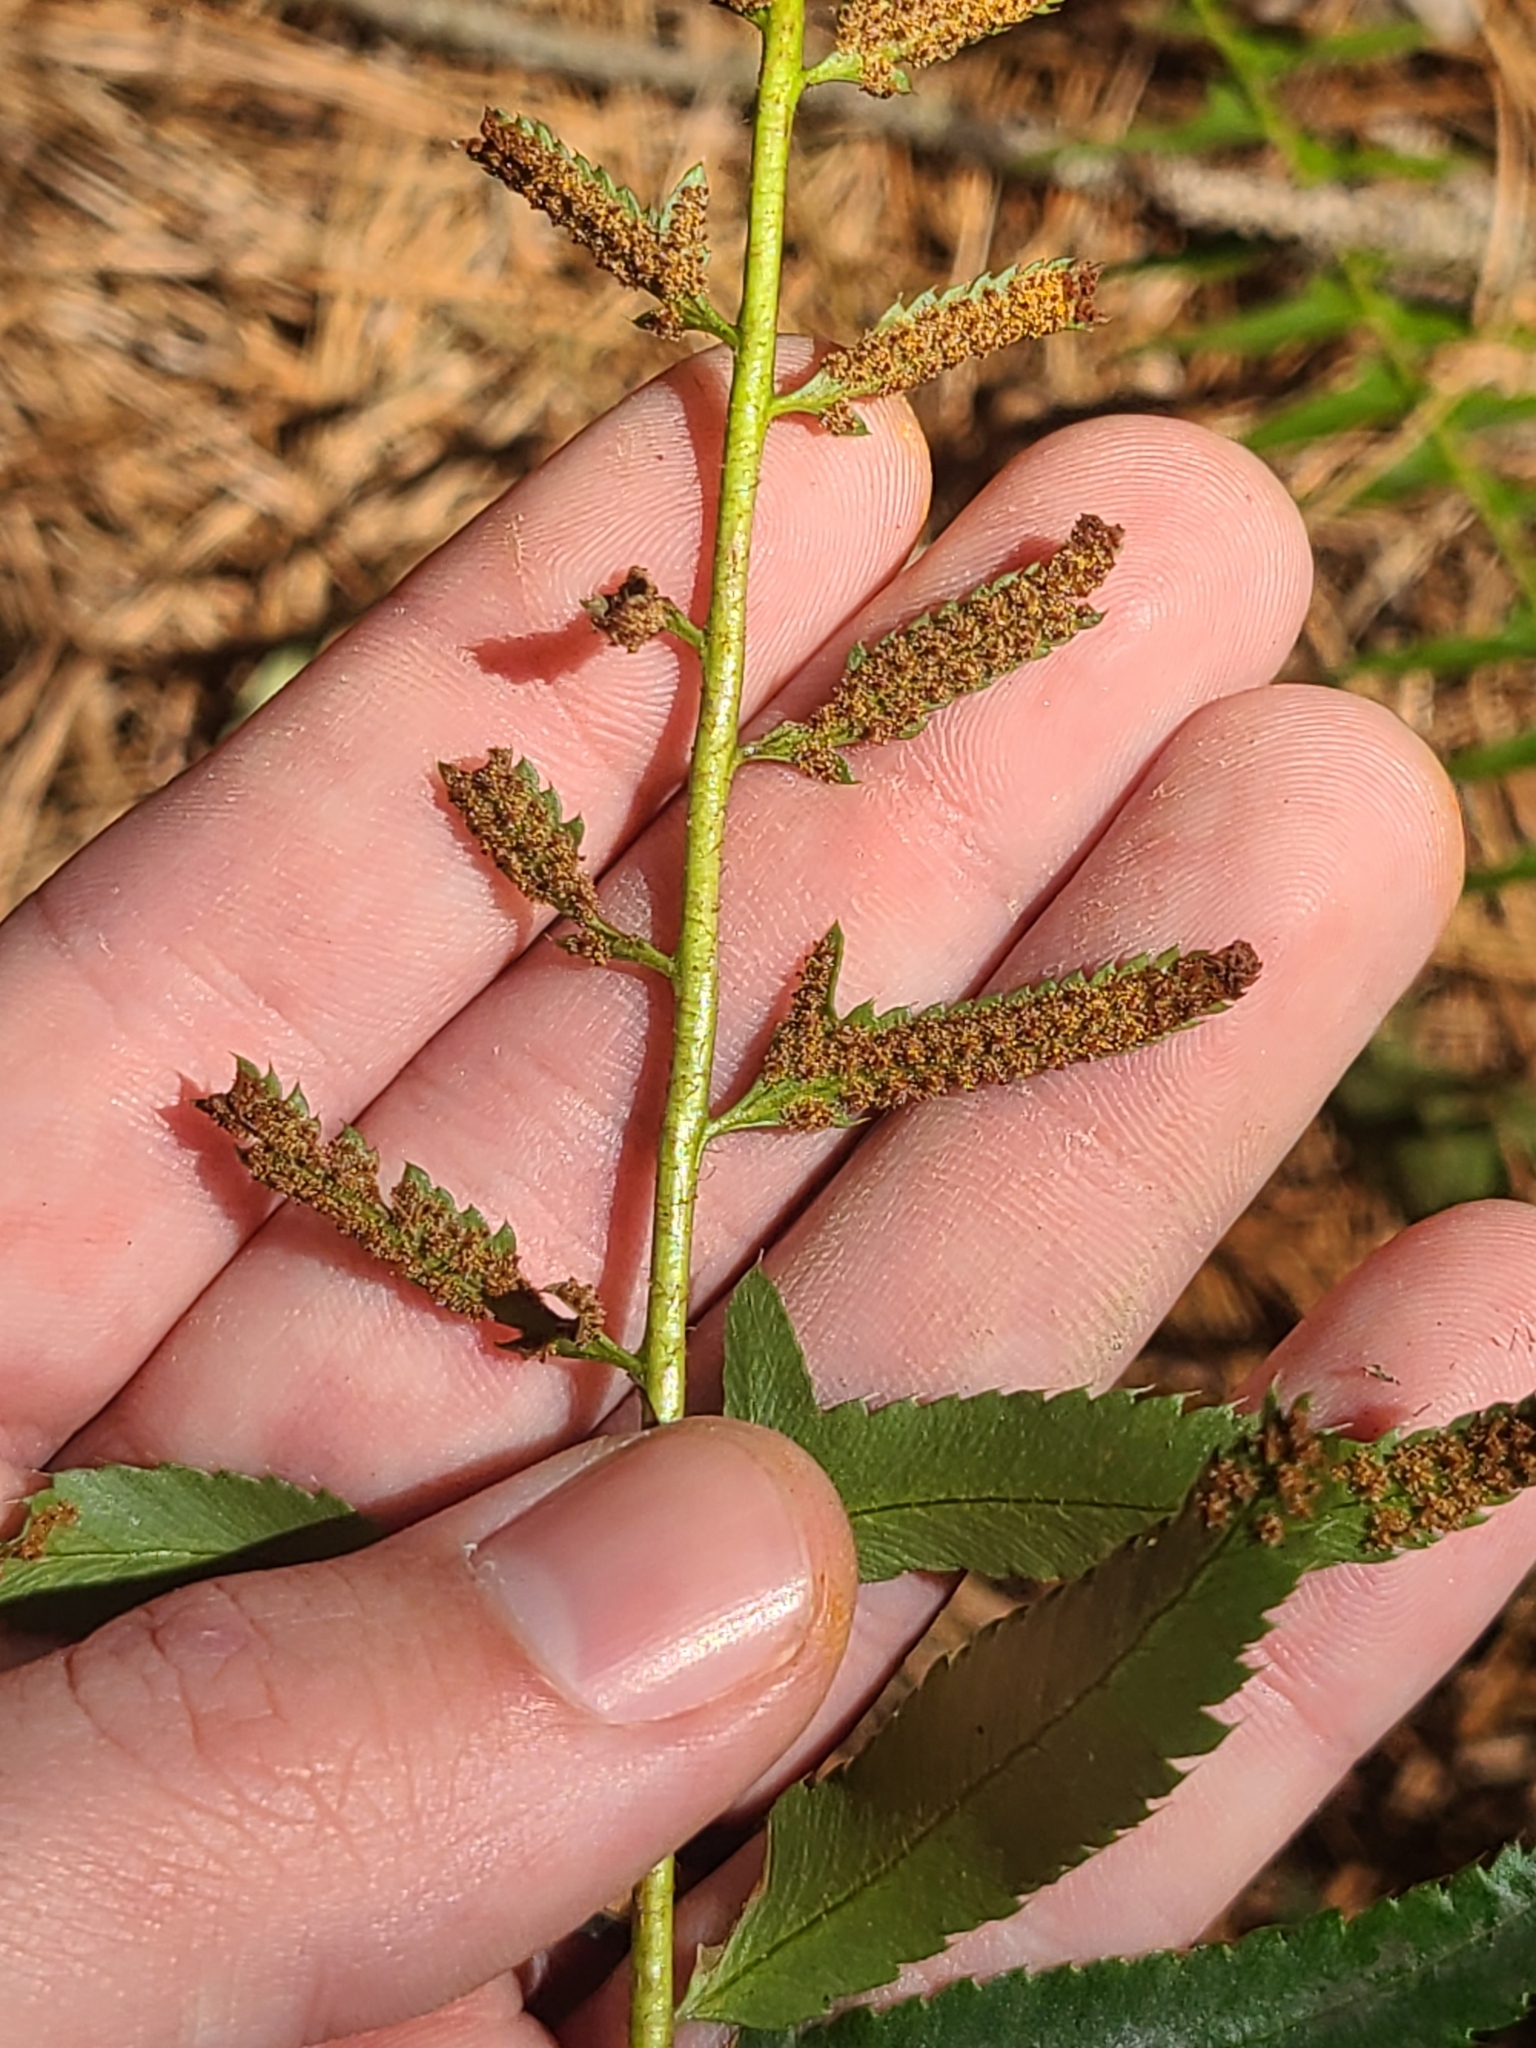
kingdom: Plantae
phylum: Tracheophyta
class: Polypodiopsida
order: Polypodiales
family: Dryopteridaceae
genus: Polystichum
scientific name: Polystichum acrostichoides
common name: Christmas fern
